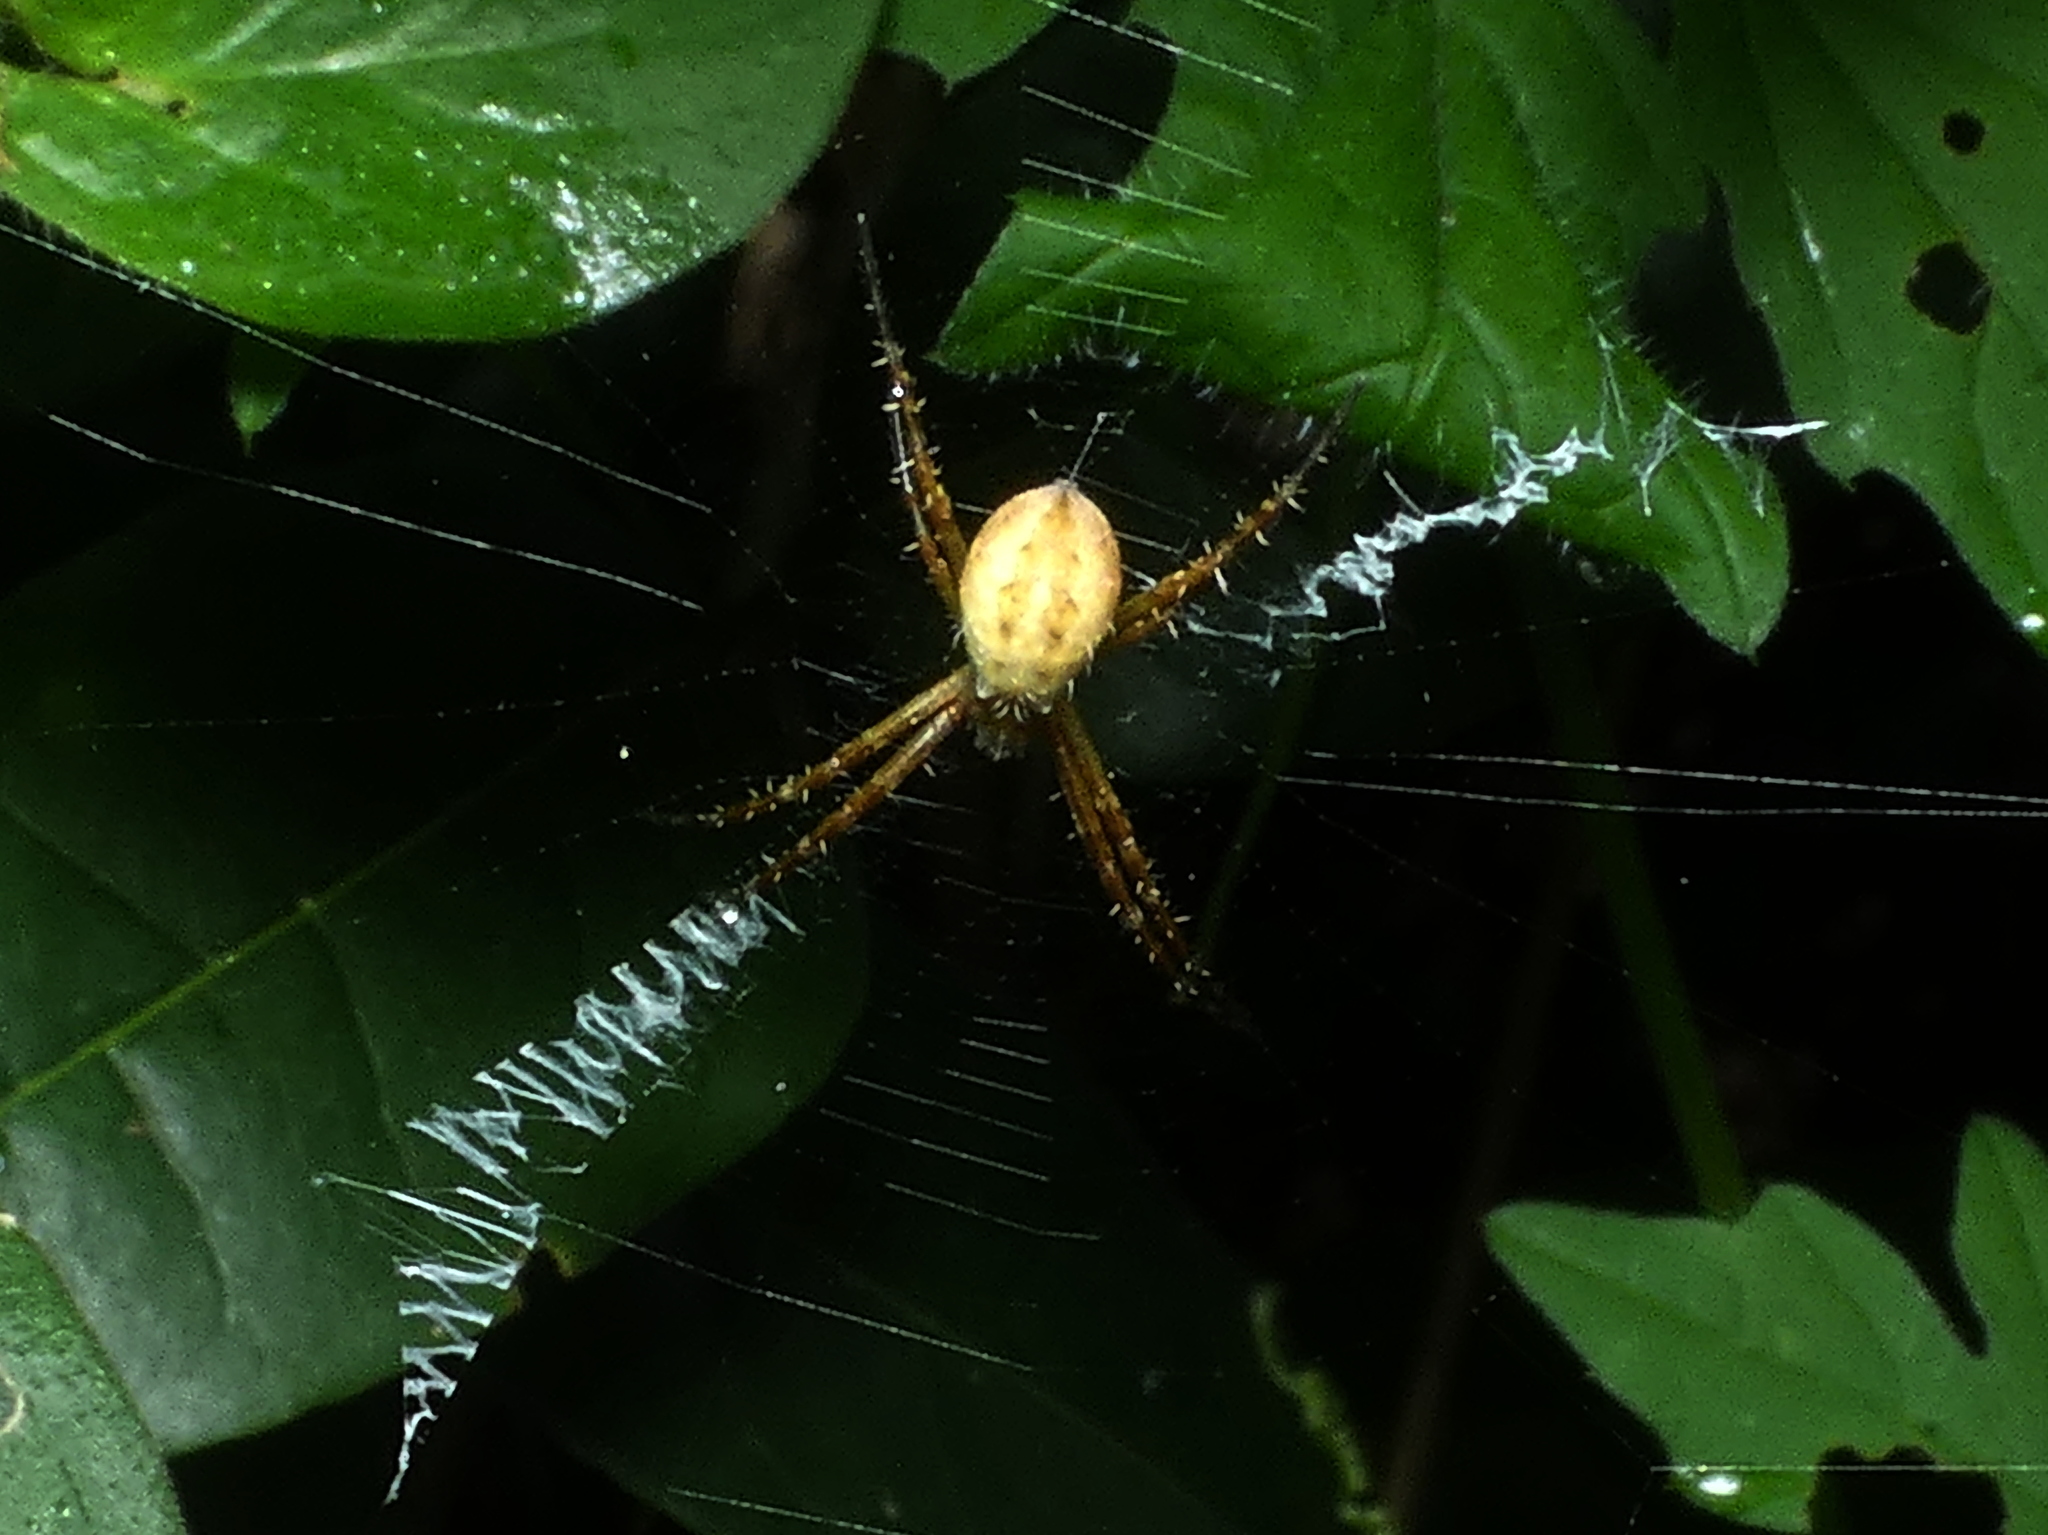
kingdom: Animalia
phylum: Arthropoda
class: Arachnida
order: Araneae
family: Araneidae
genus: Argiope
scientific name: Argiope argentata
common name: Orb weavers
